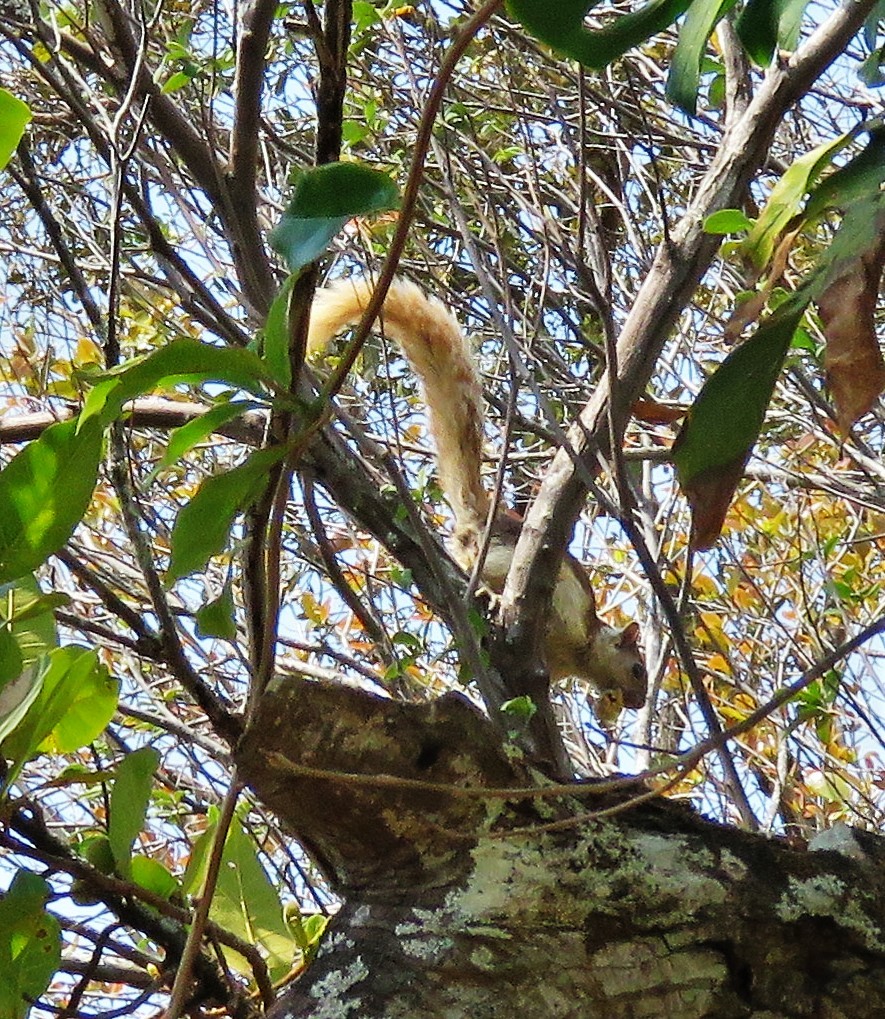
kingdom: Animalia
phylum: Chordata
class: Mammalia
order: Rodentia
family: Sciuridae
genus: Sciurus
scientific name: Sciurus variegatoides
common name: Variegated squirrel
